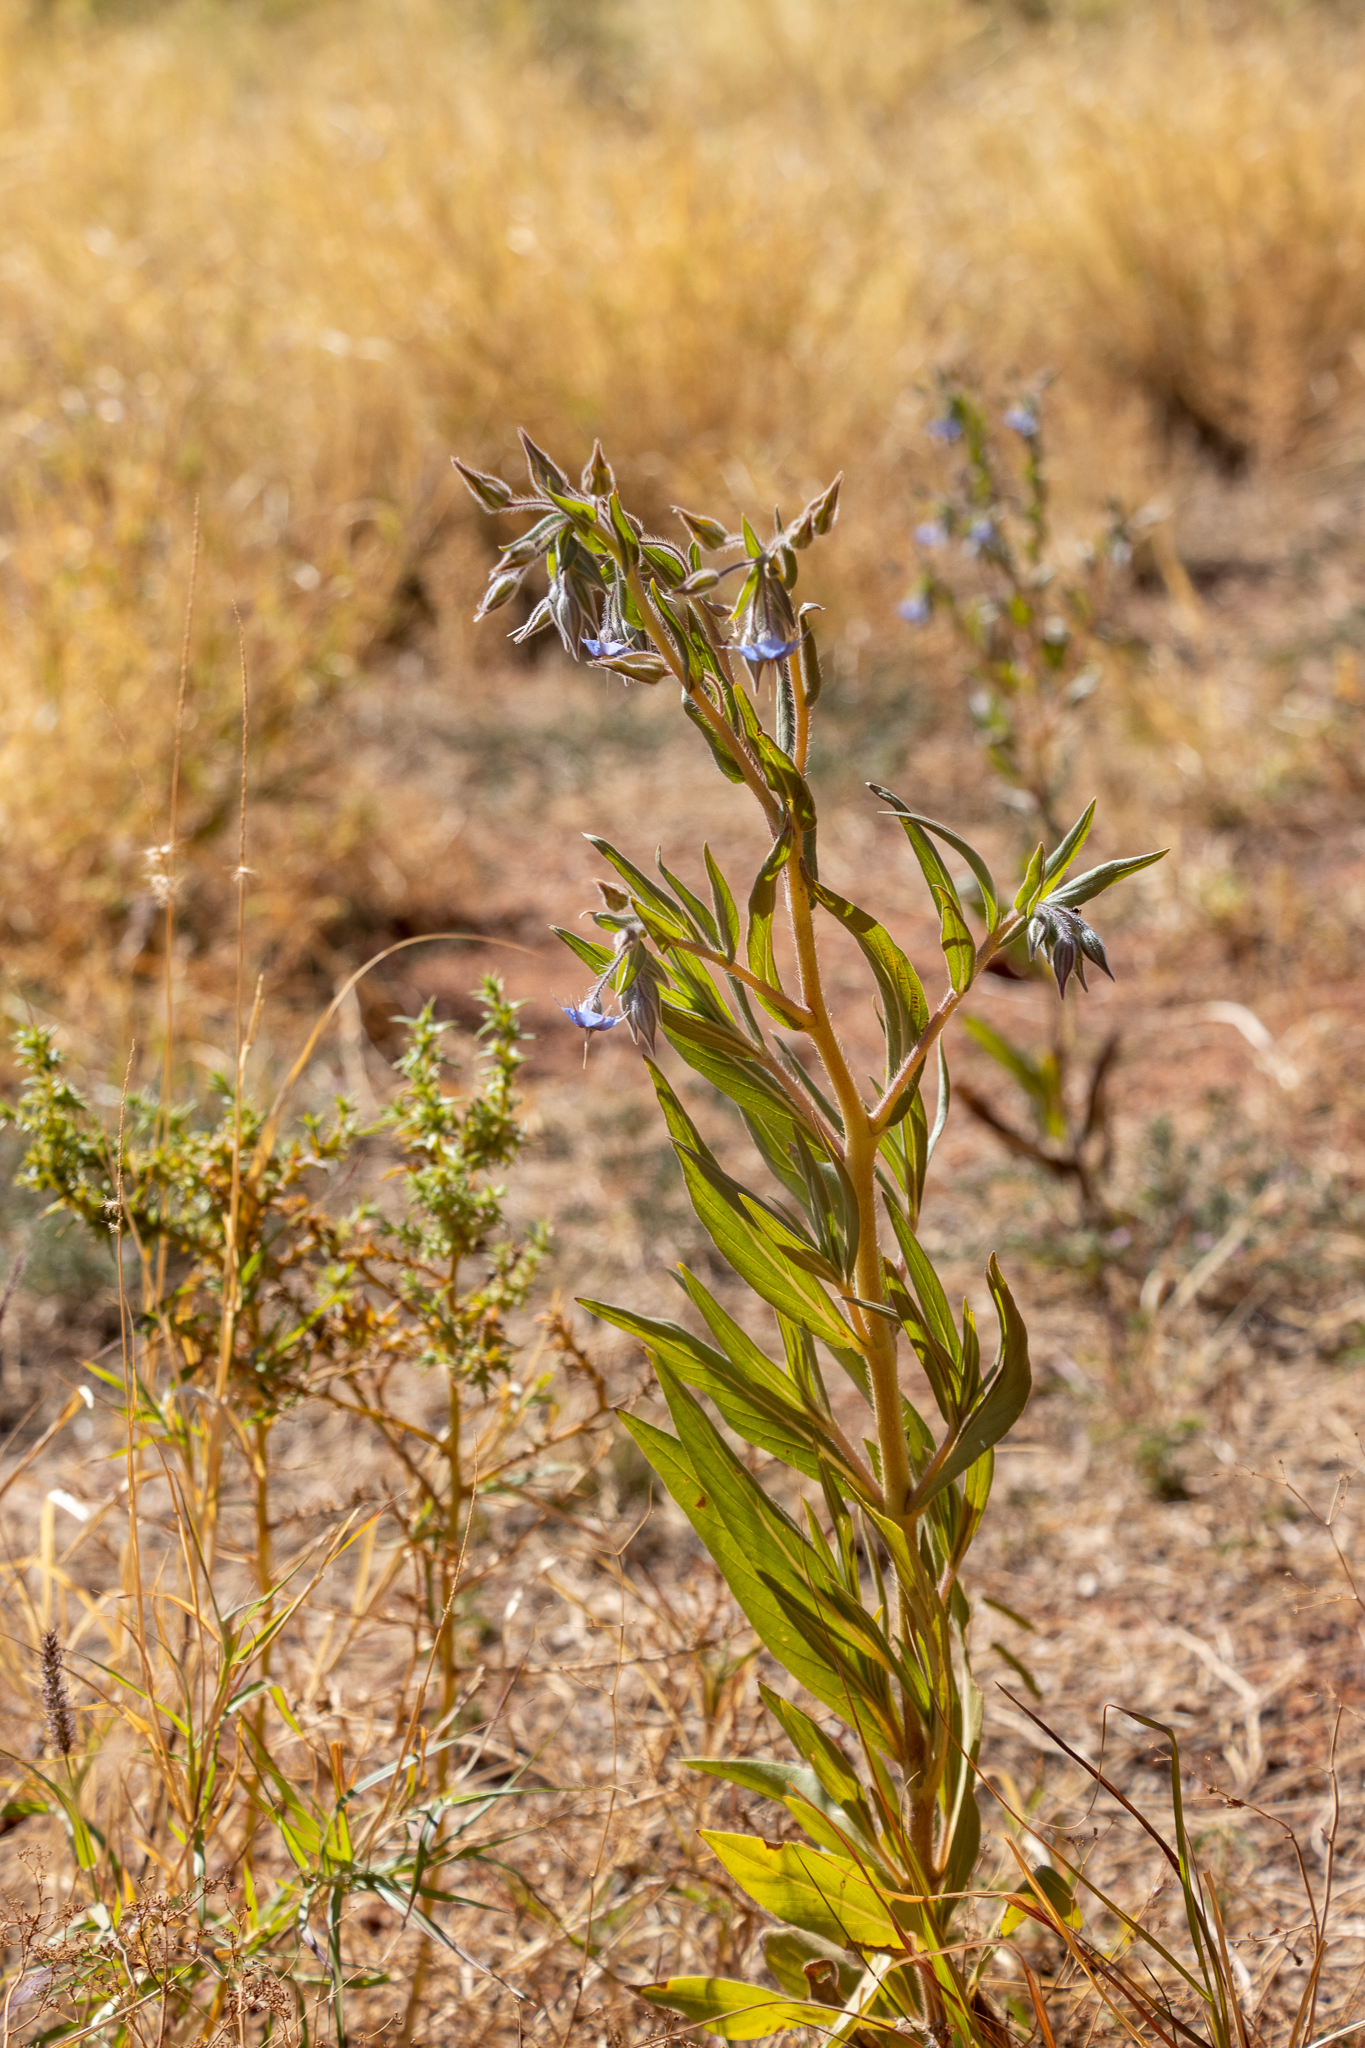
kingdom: Plantae
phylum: Tracheophyta
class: Magnoliopsida
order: Boraginales
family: Boraginaceae
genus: Trichodesma
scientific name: Trichodesma zeylanicum
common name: Camelbush
